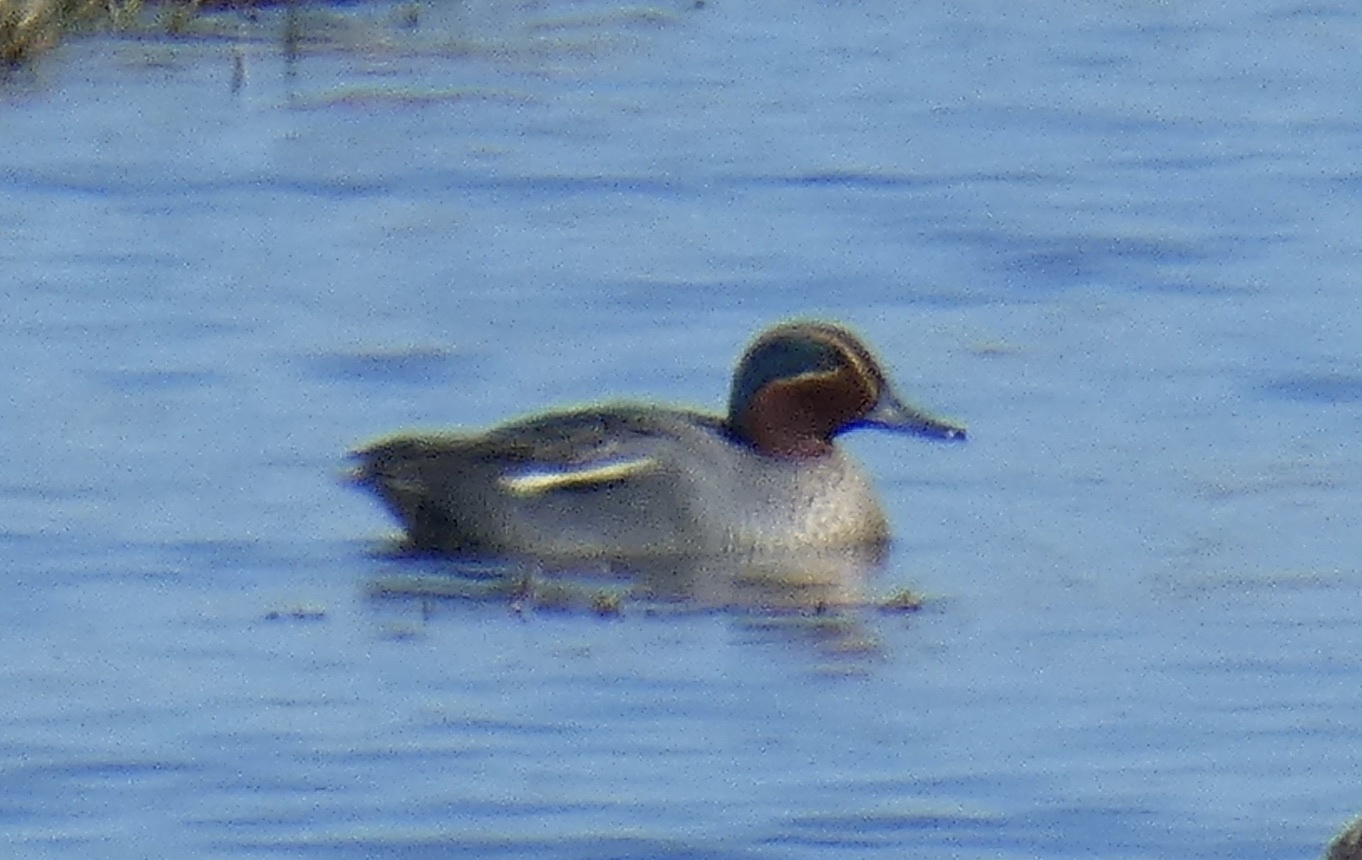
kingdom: Animalia
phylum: Chordata
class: Aves
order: Anseriformes
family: Anatidae
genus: Anas
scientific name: Anas crecca
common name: Eurasian teal
